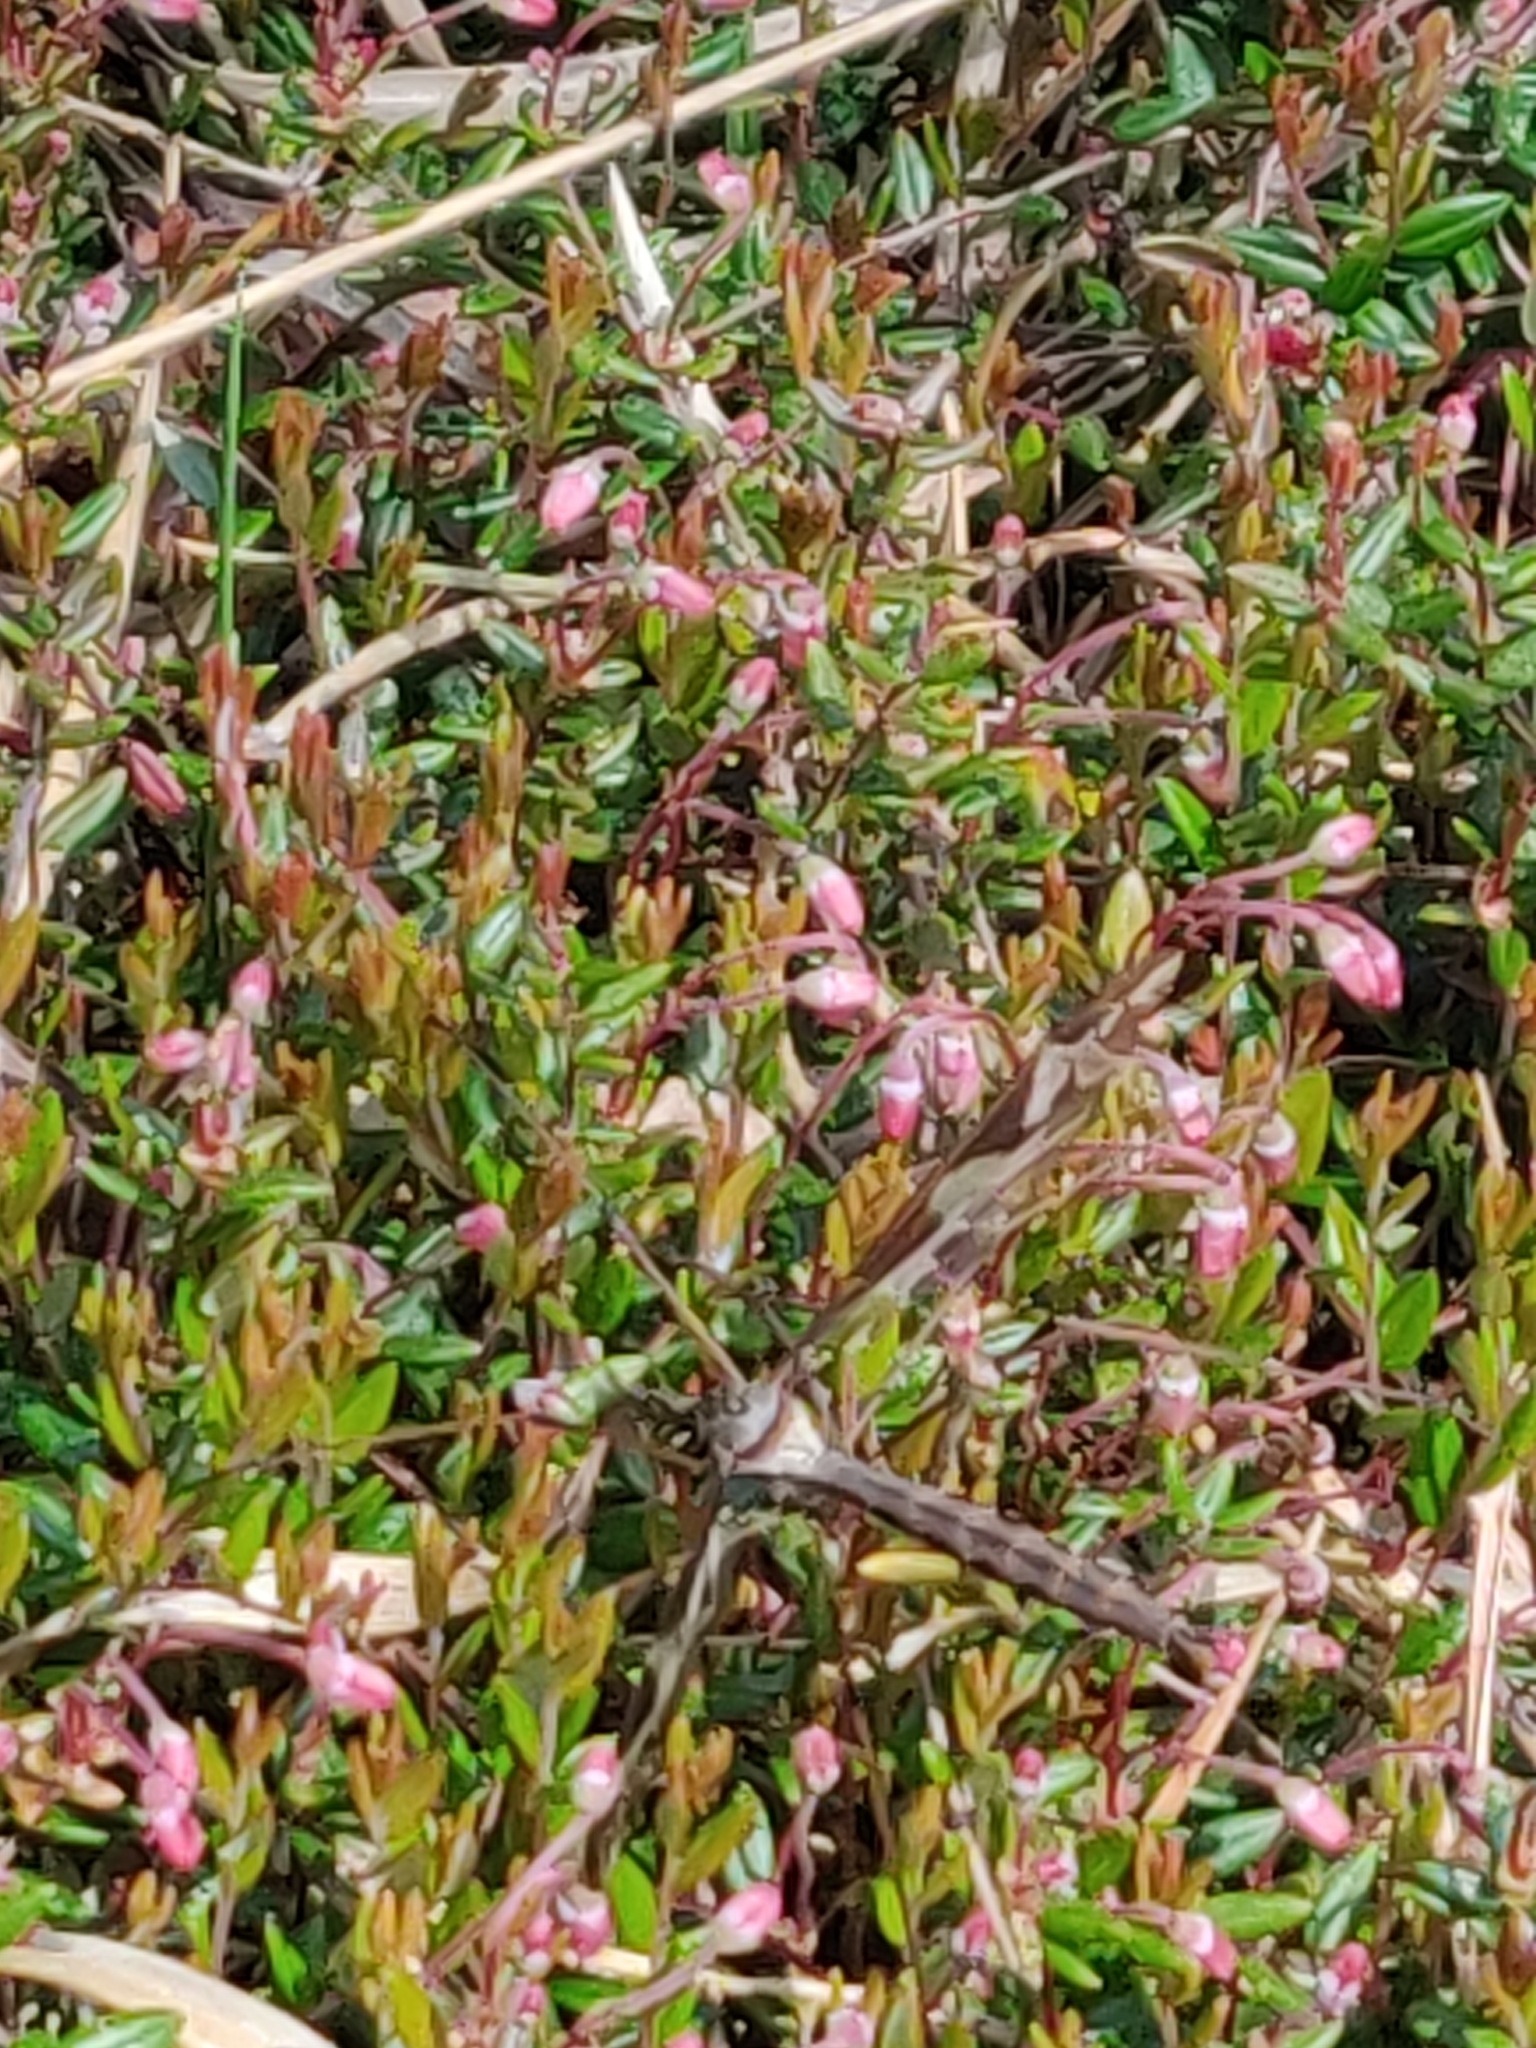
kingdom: Plantae
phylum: Tracheophyta
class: Magnoliopsida
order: Ericales
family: Ericaceae
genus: Vaccinium
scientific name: Vaccinium oxycoccos
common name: Cranberry
